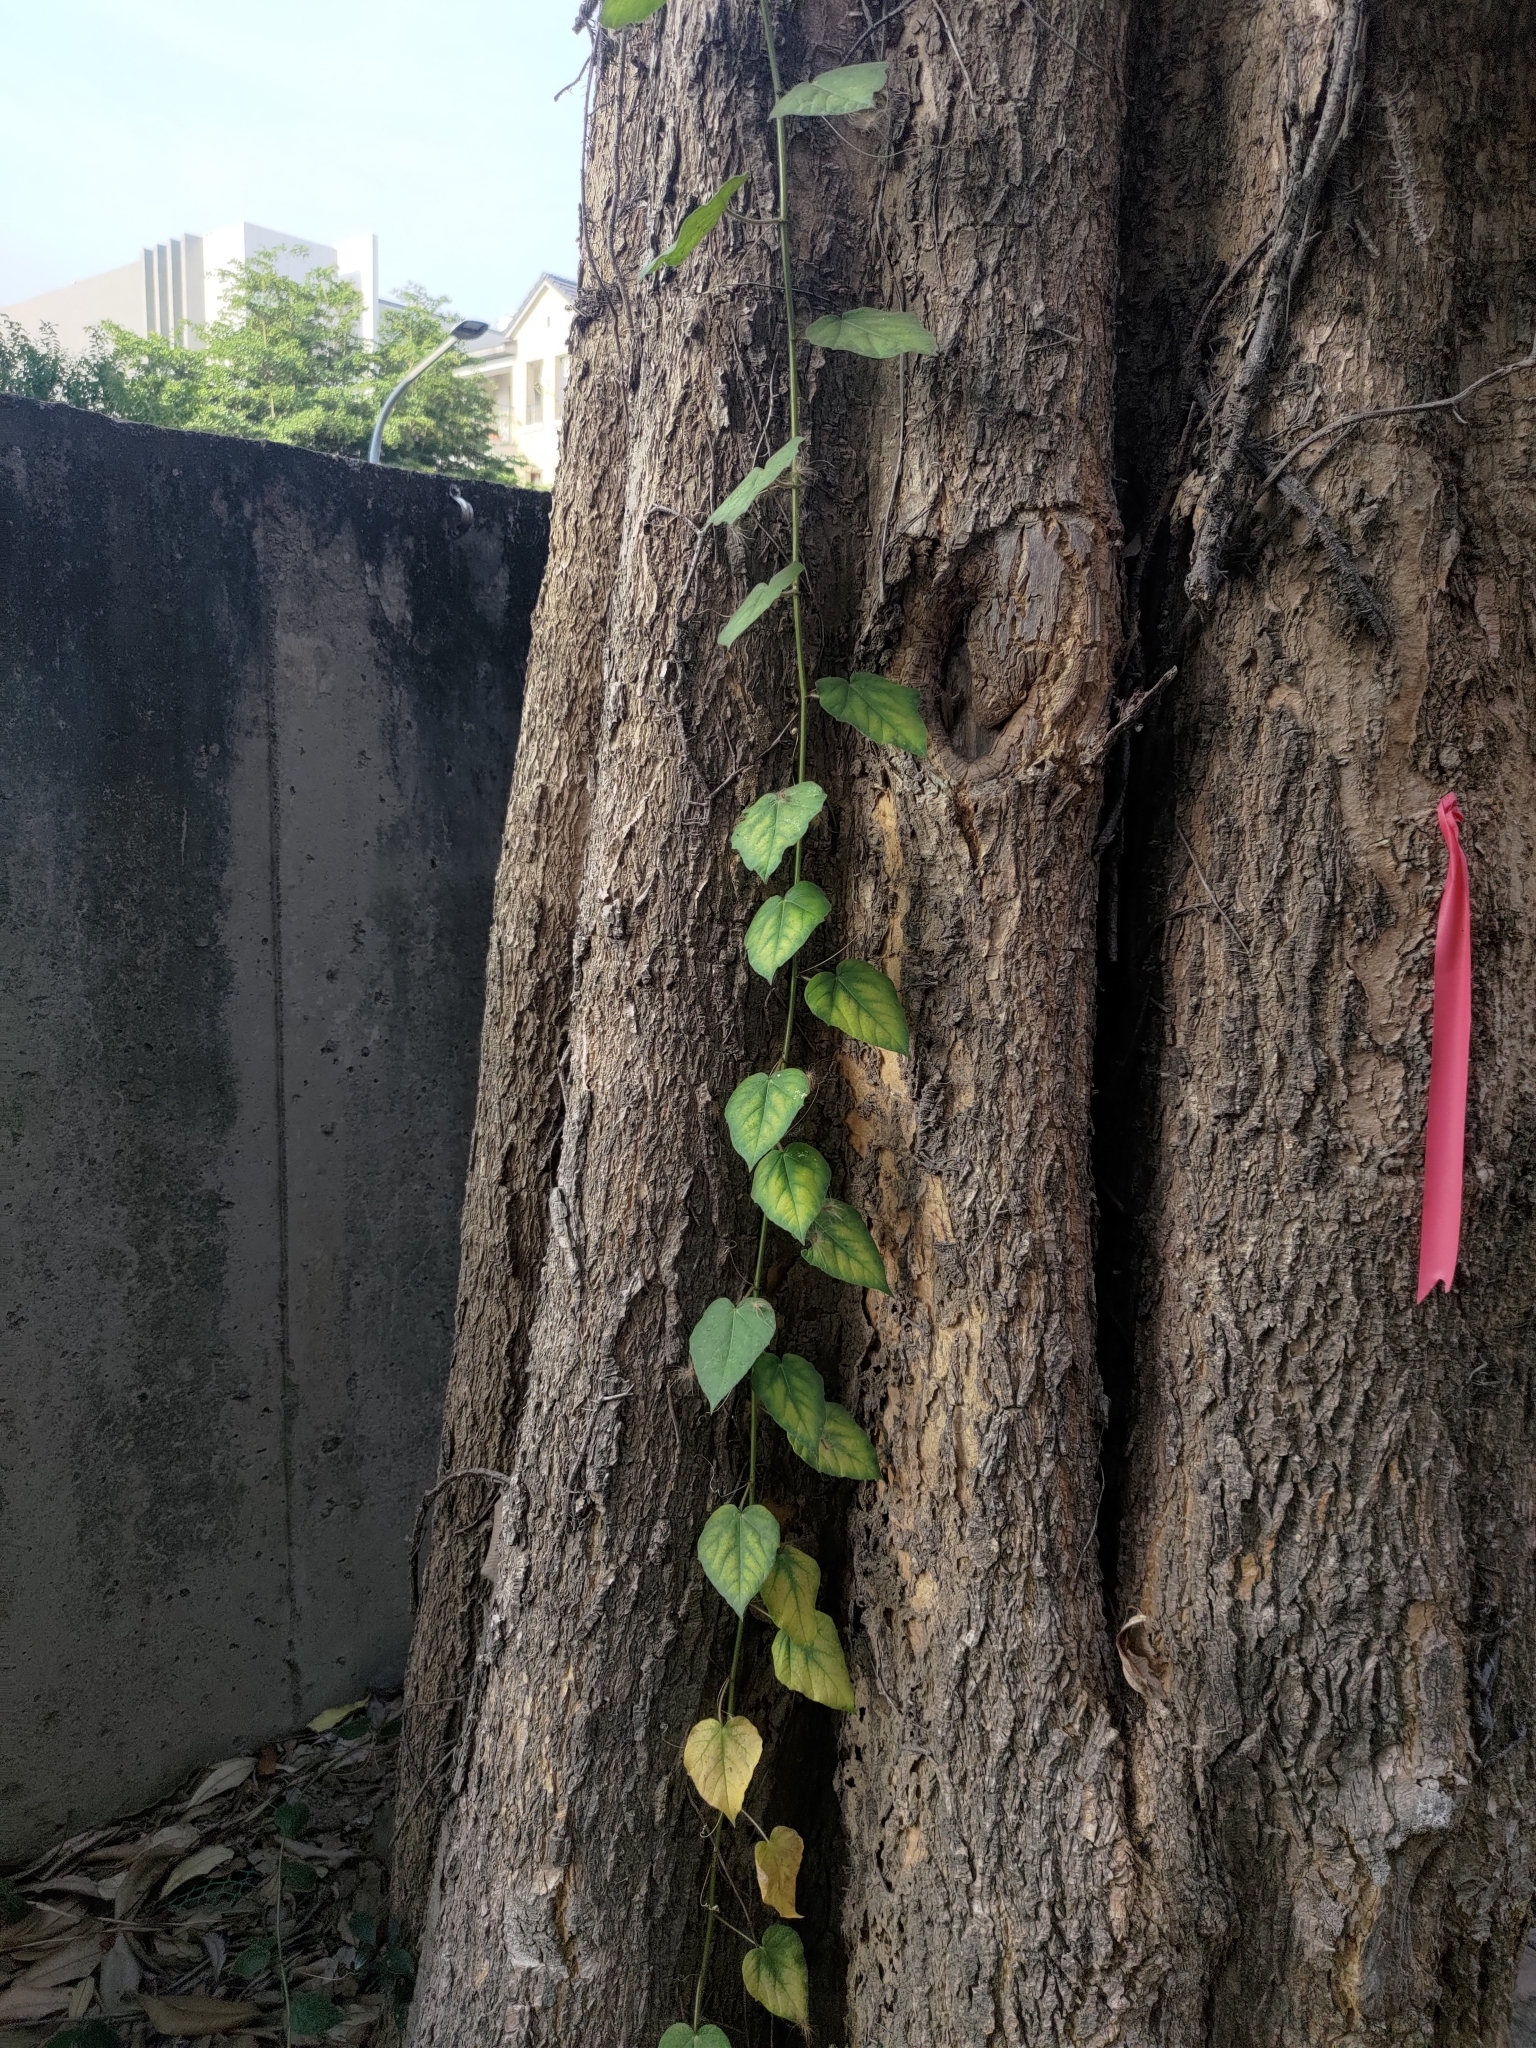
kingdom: Plantae
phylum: Tracheophyta
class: Magnoliopsida
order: Malpighiales
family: Passifloraceae
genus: Passiflora
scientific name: Passiflora vesicaria
